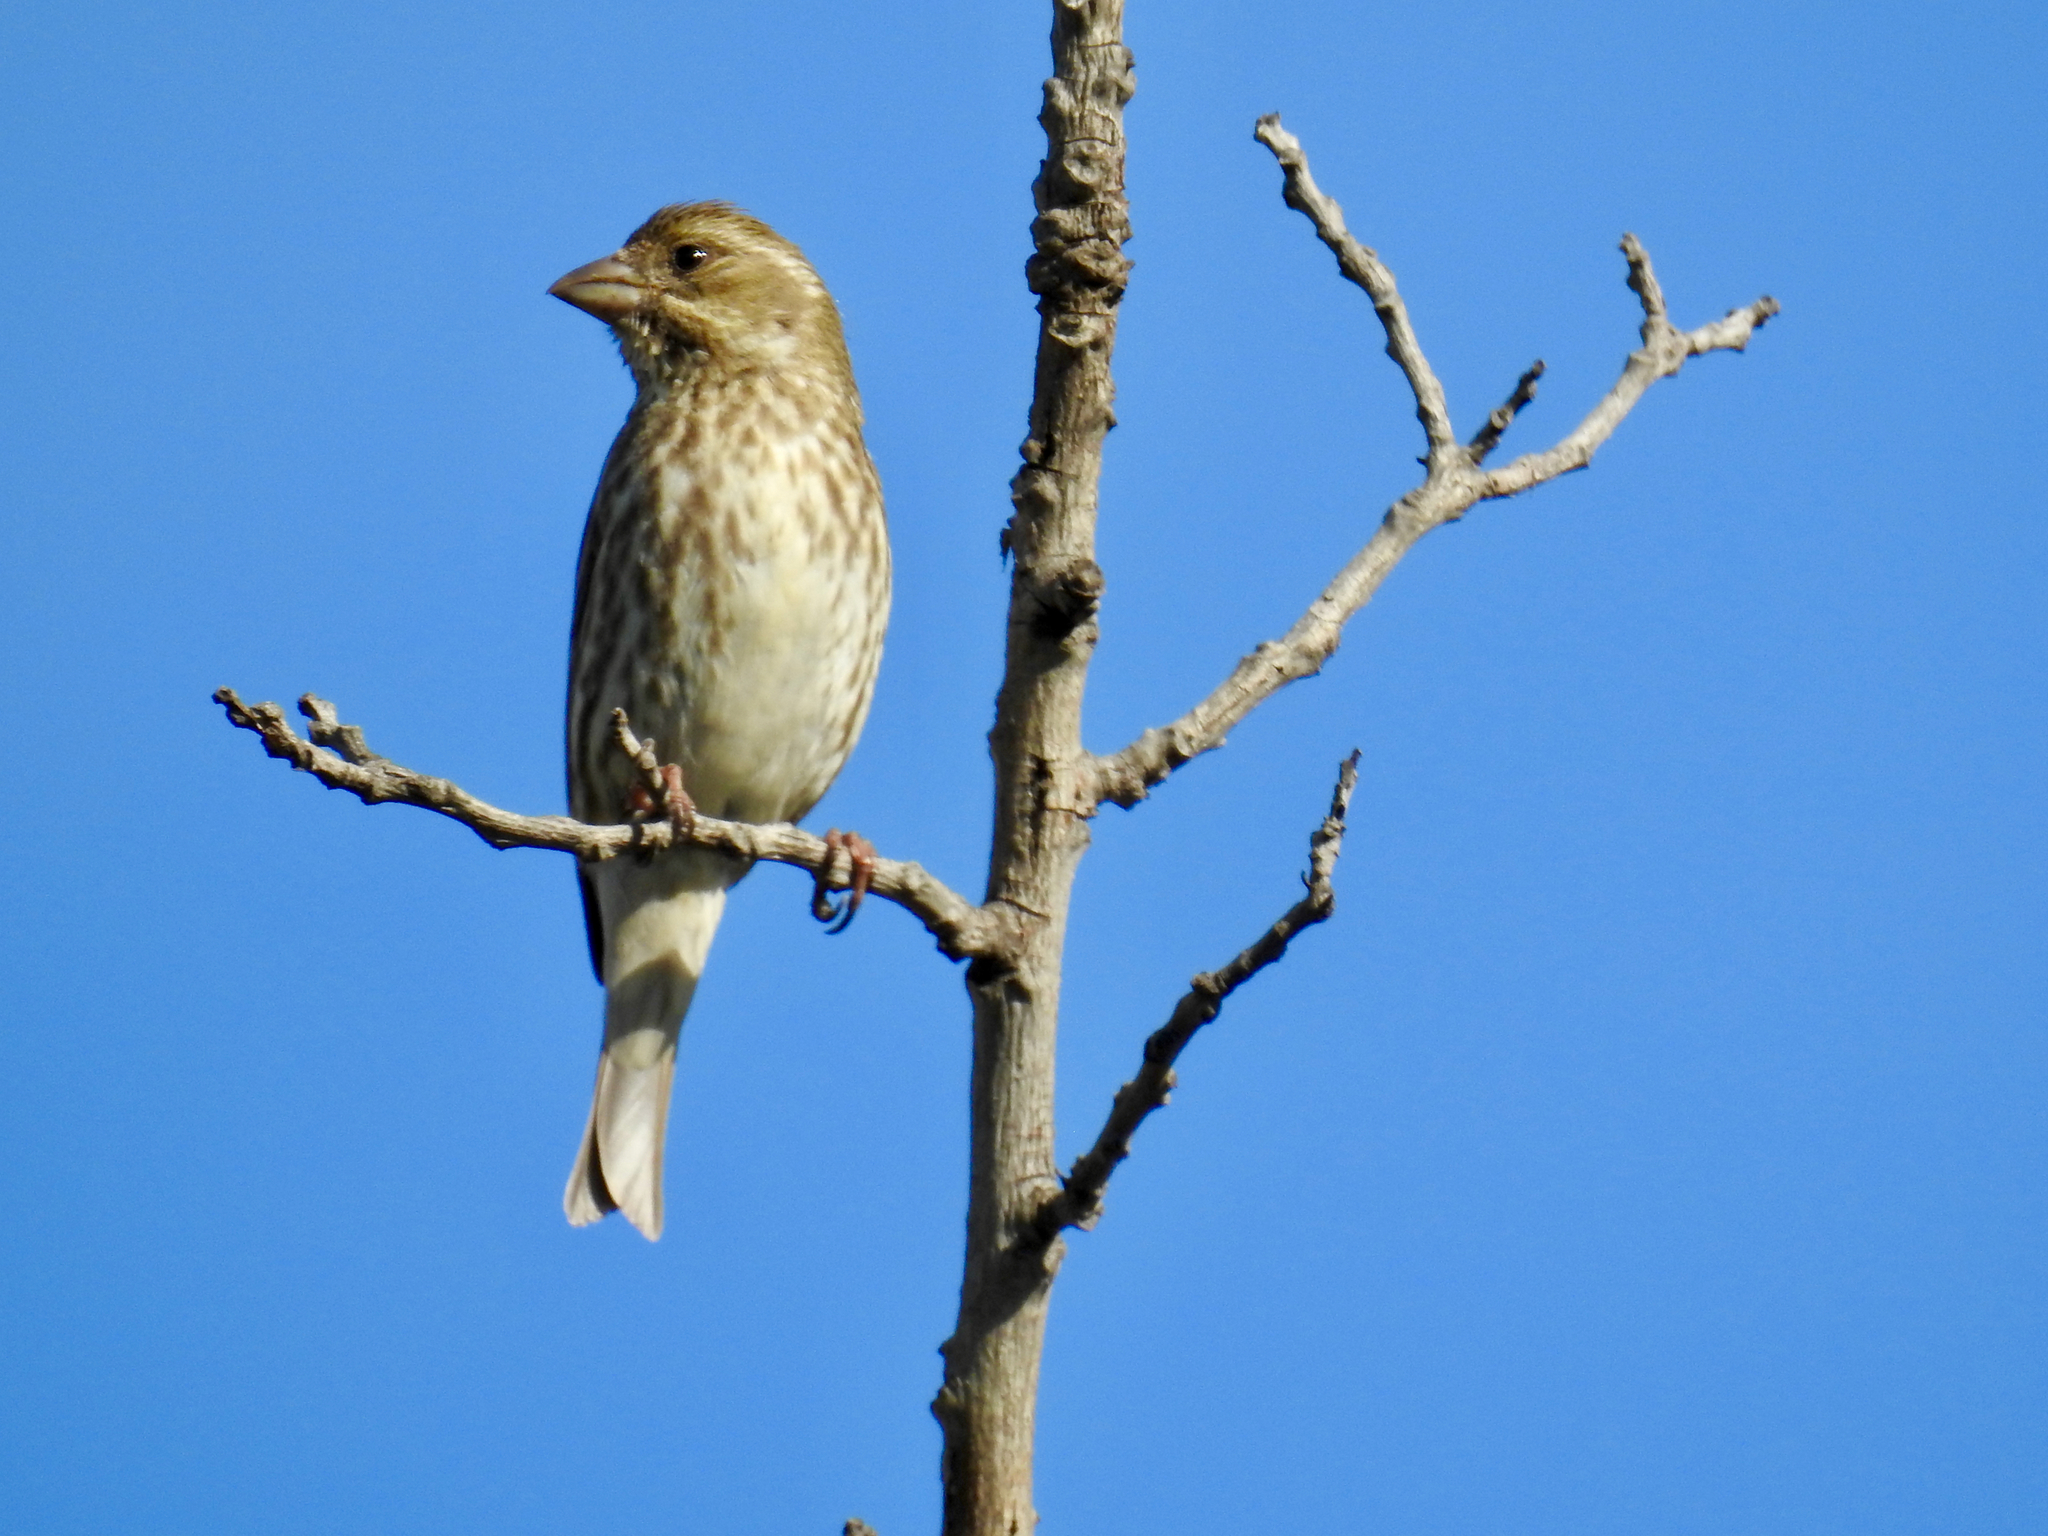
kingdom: Animalia
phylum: Chordata
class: Aves
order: Passeriformes
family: Fringillidae
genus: Haemorhous
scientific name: Haemorhous purpureus
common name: Purple finch
